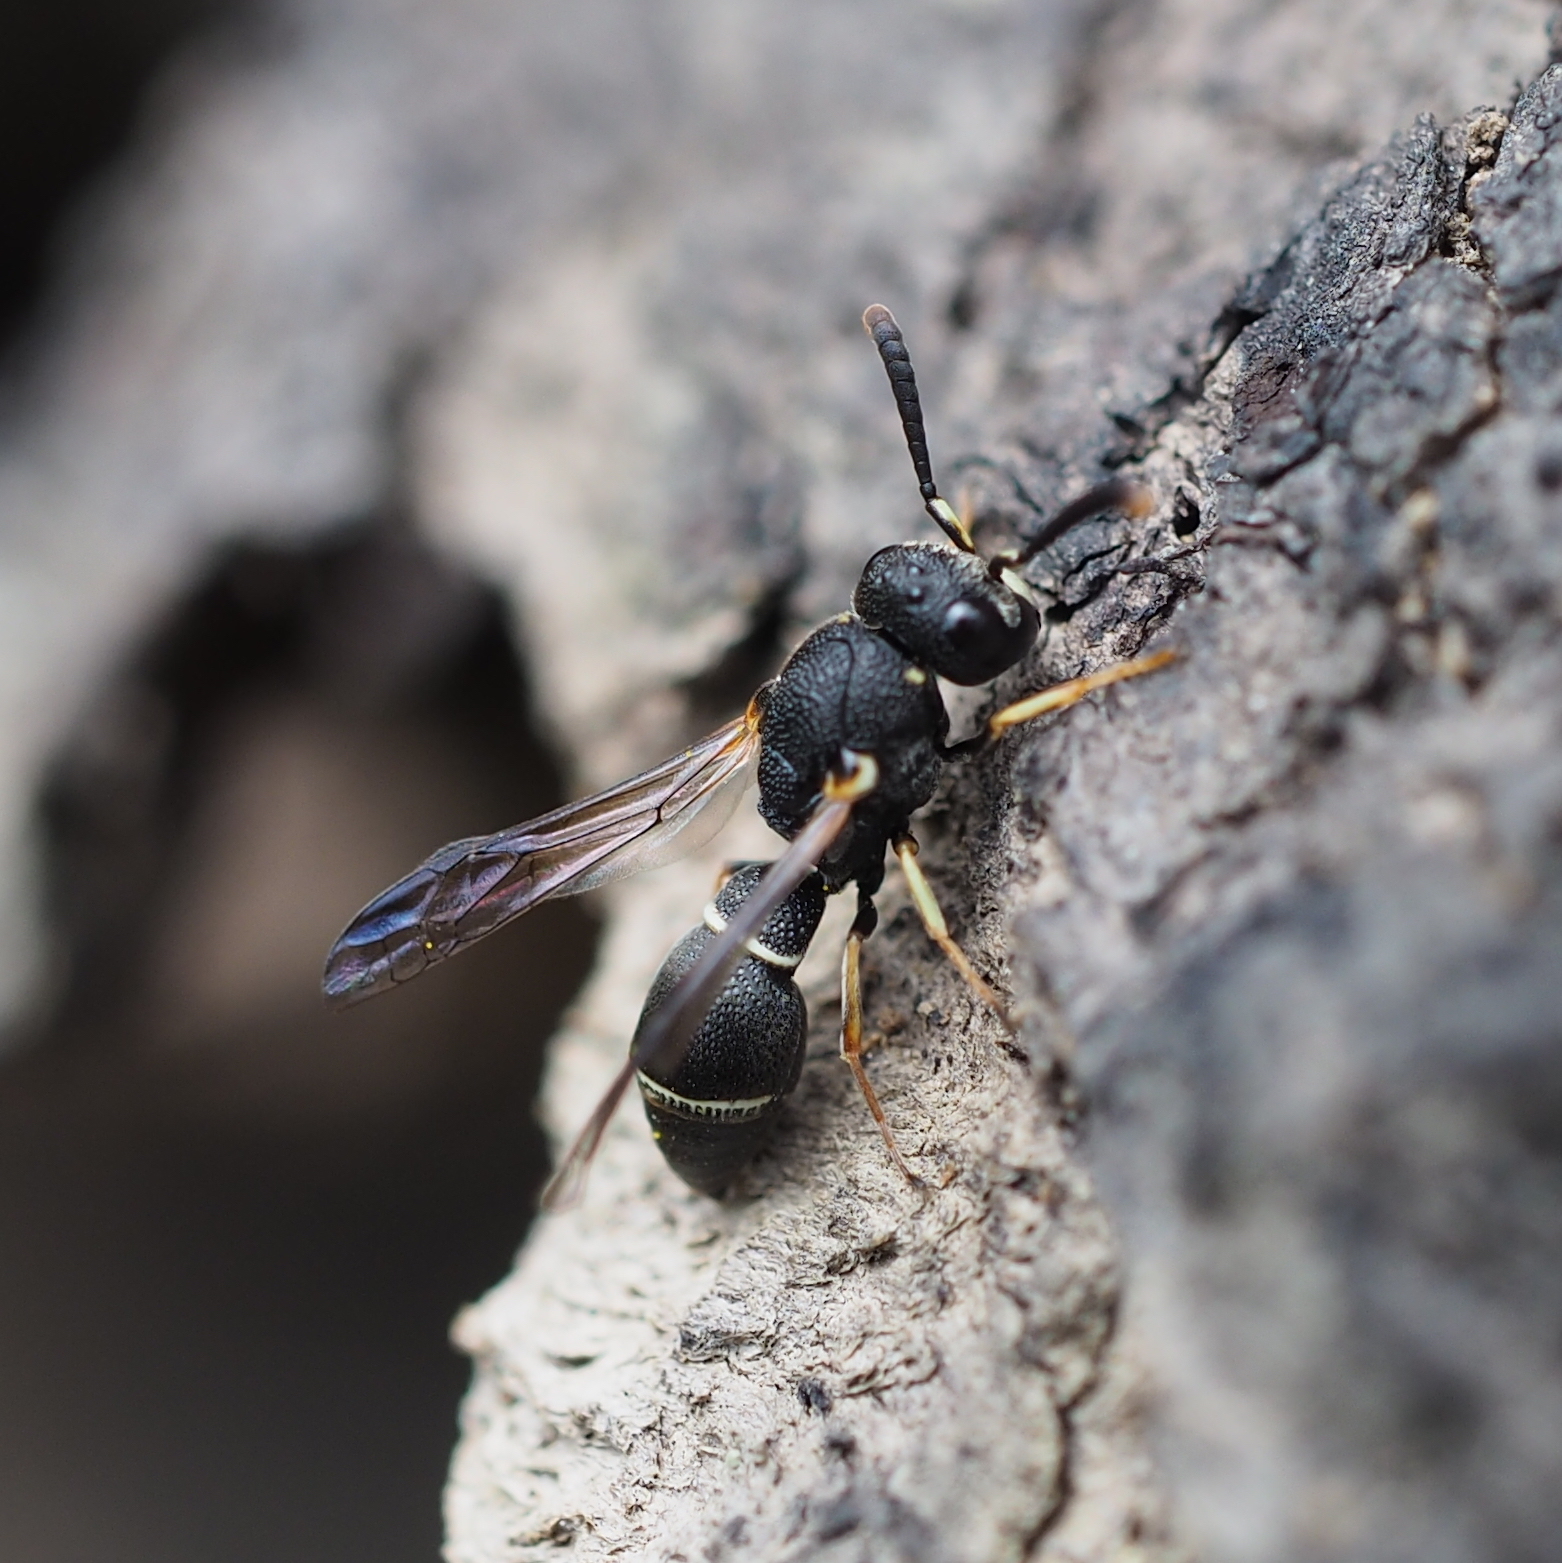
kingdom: Animalia
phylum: Arthropoda
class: Insecta
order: Hymenoptera
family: Eumenidae
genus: Leptochilus
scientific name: Leptochilus regulus
